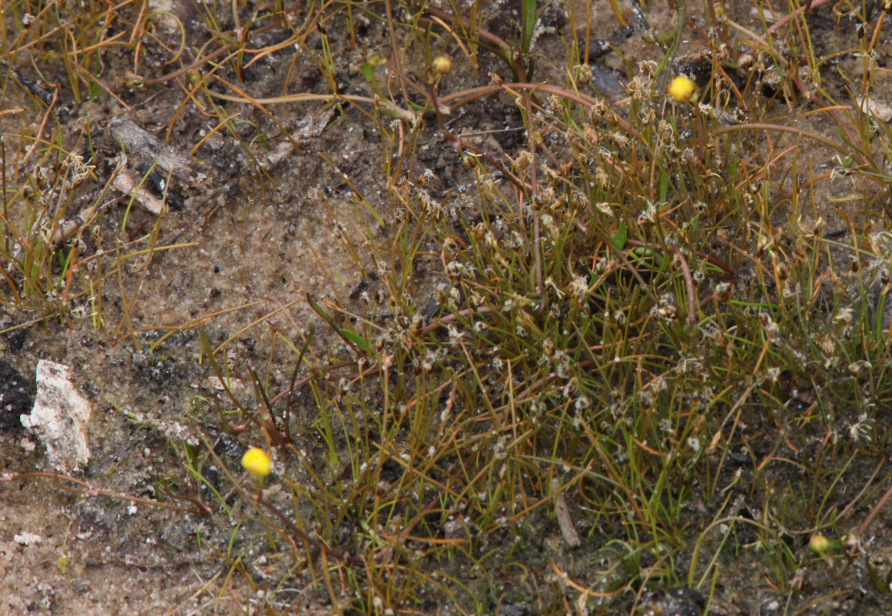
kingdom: Plantae
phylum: Tracheophyta
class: Liliopsida
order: Poales
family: Cyperaceae
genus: Eleocharis
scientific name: Eleocharis acicularis
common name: Needle spike-rush
